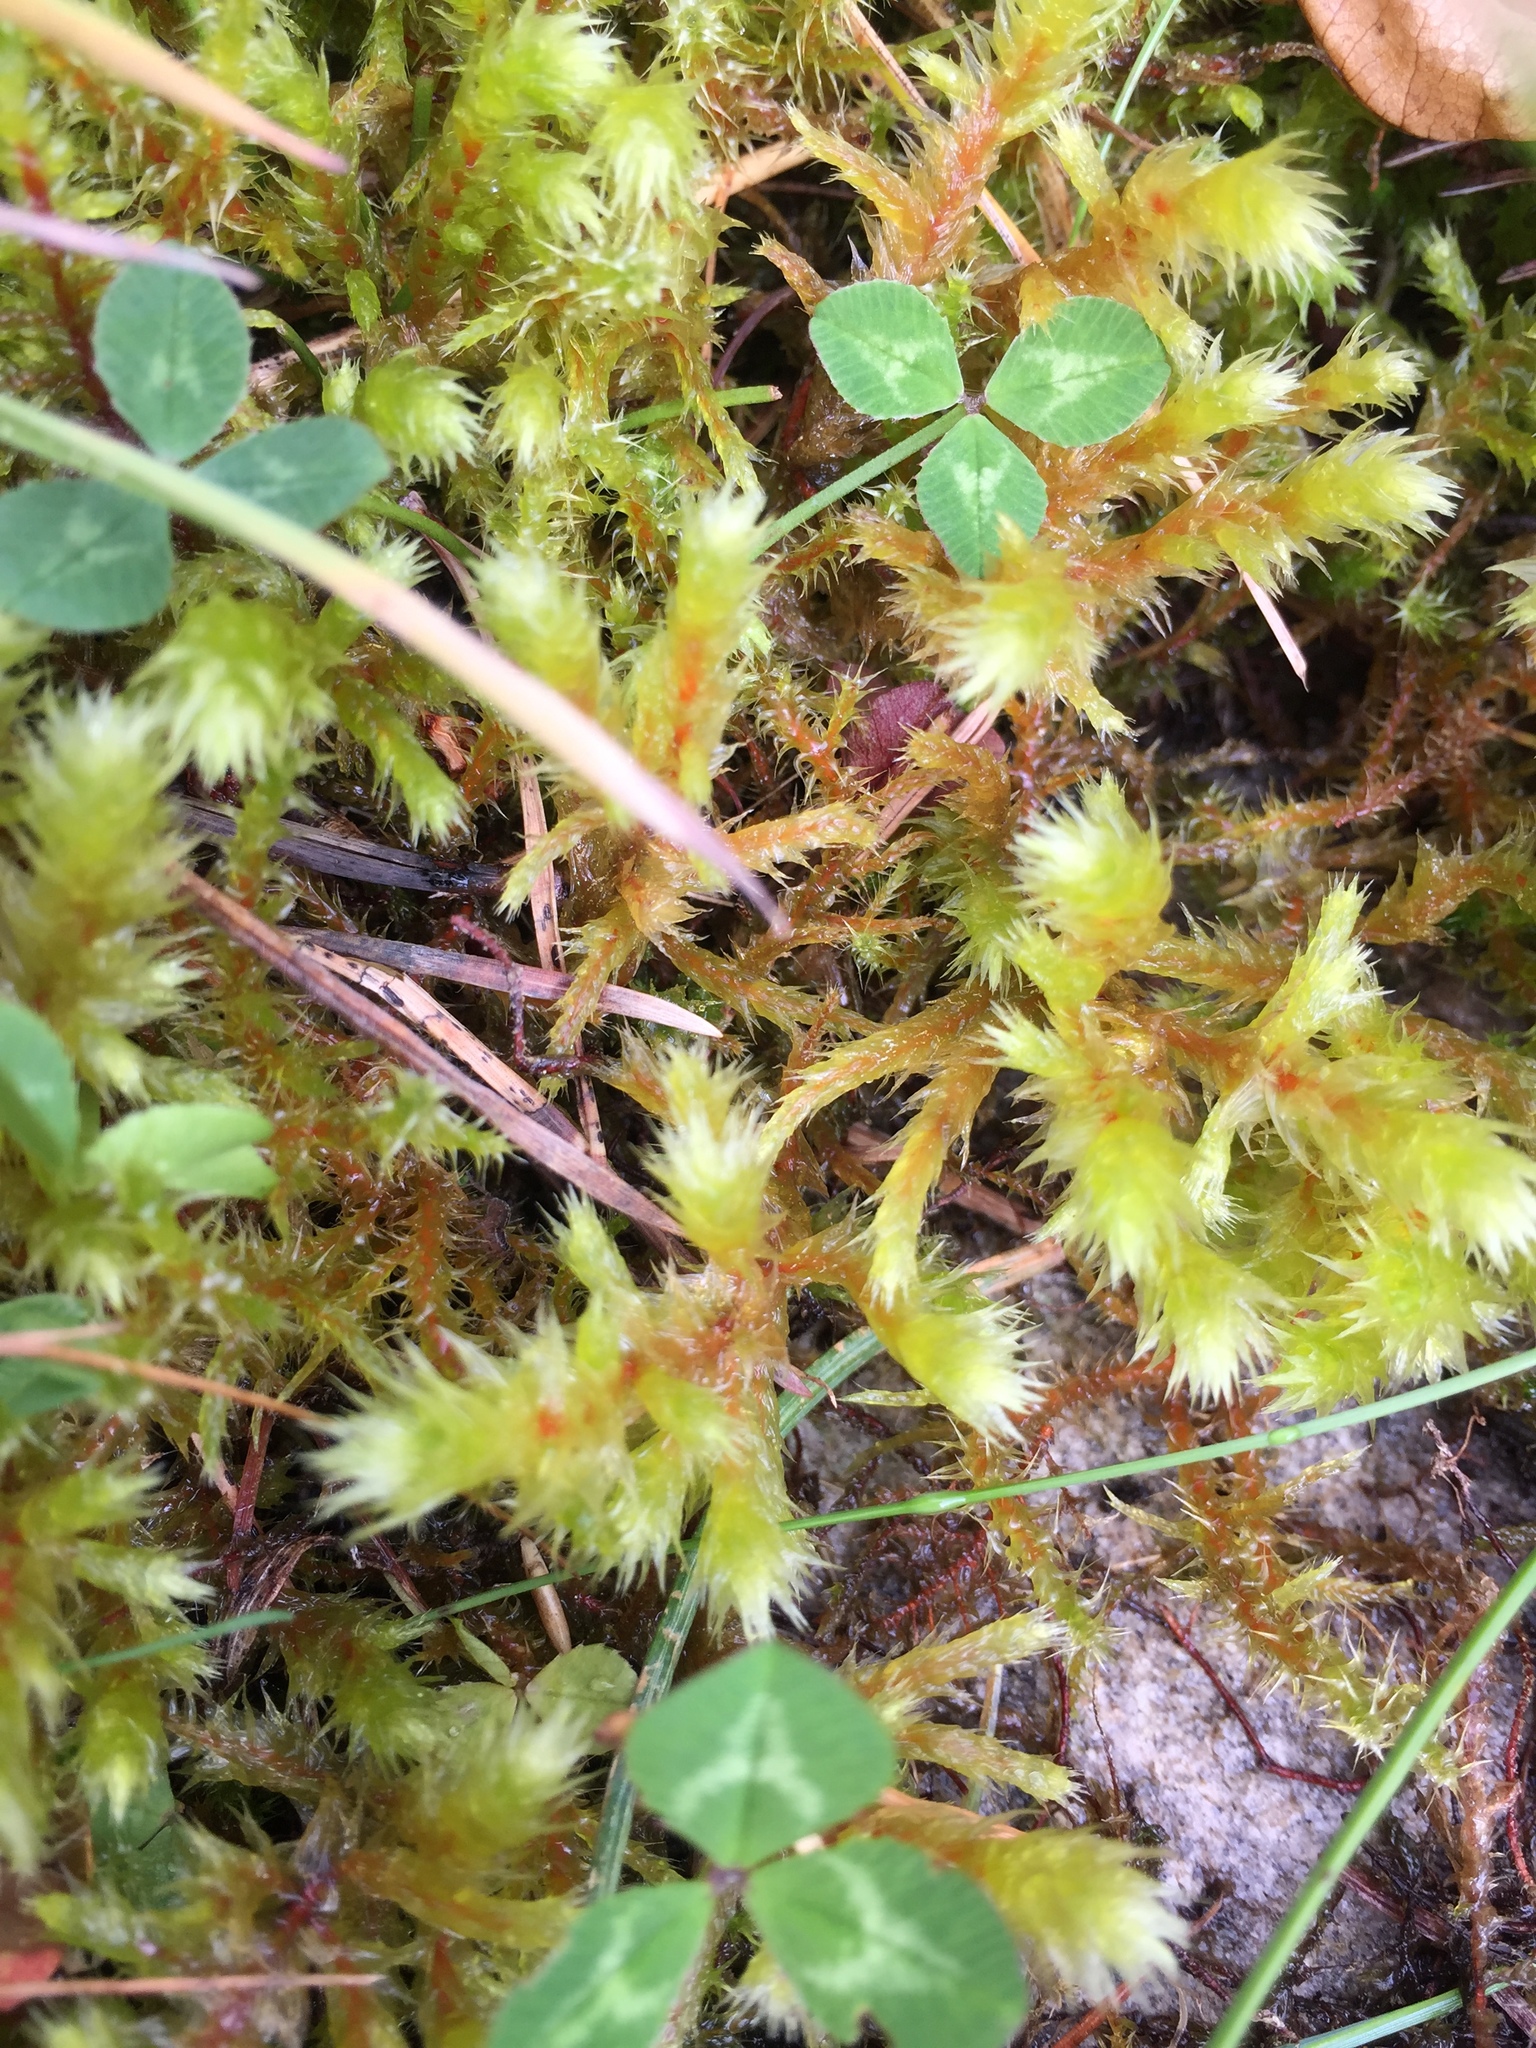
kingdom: Plantae
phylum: Bryophyta
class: Bryopsida
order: Hypnales
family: Hylocomiaceae
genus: Hylocomiadelphus
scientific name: Hylocomiadelphus triquetrus
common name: Rough goose neck moss
